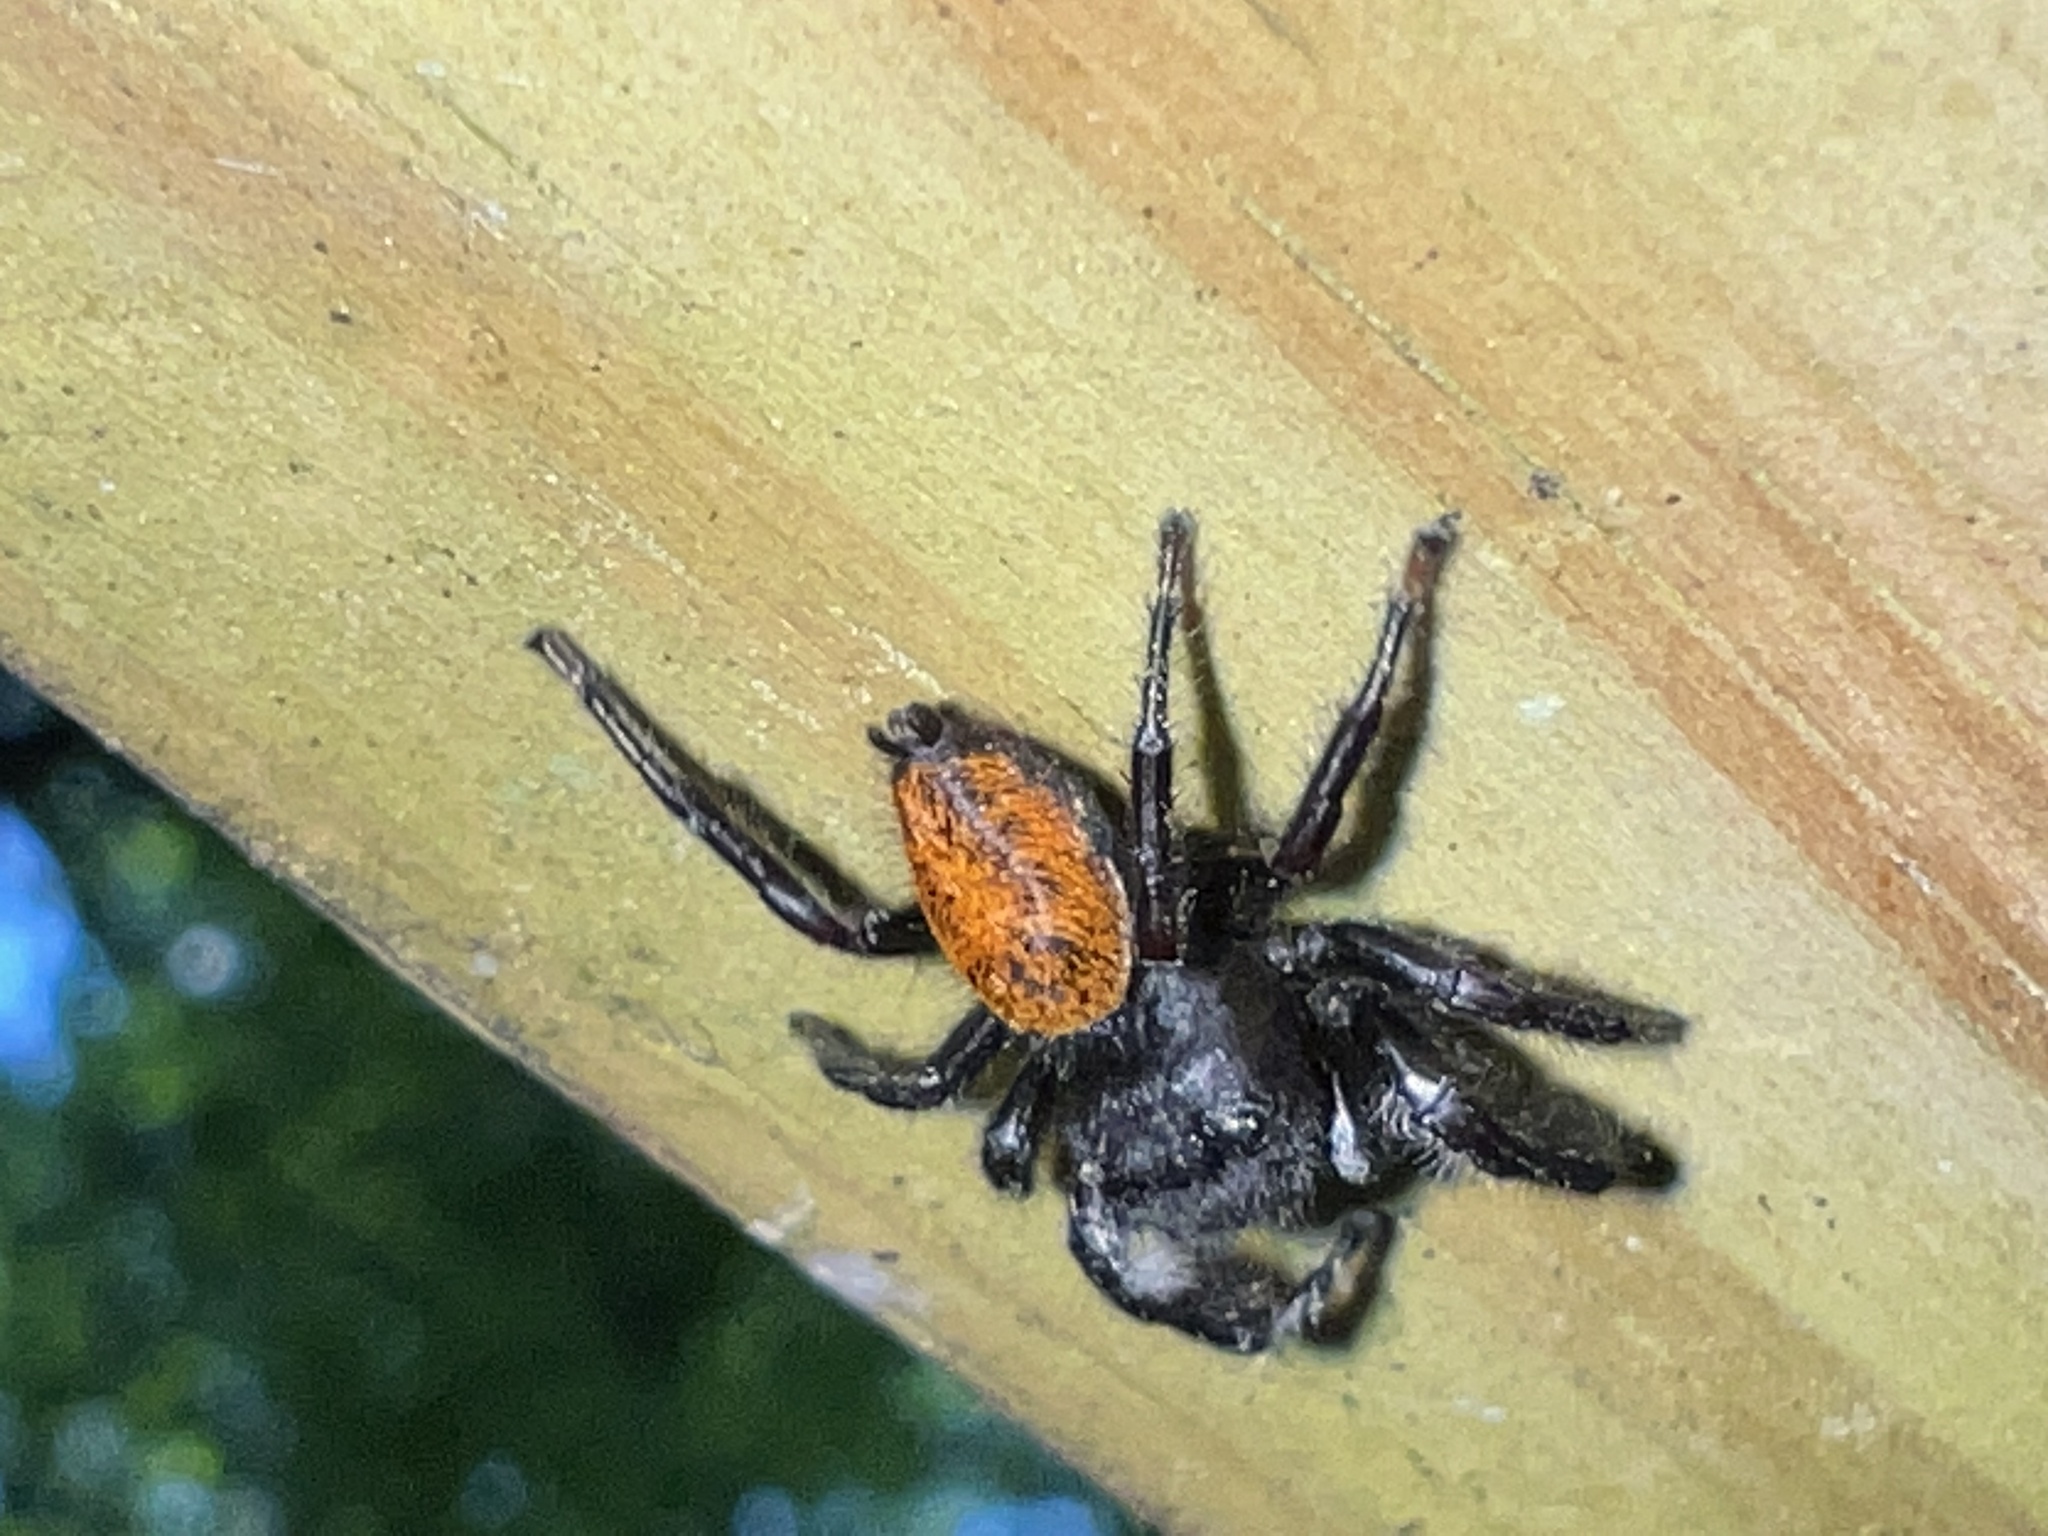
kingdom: Animalia
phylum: Arthropoda
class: Arachnida
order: Araneae
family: Salticidae
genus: Phidippus
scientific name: Phidippus princeps
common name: Grayish jumping spider
